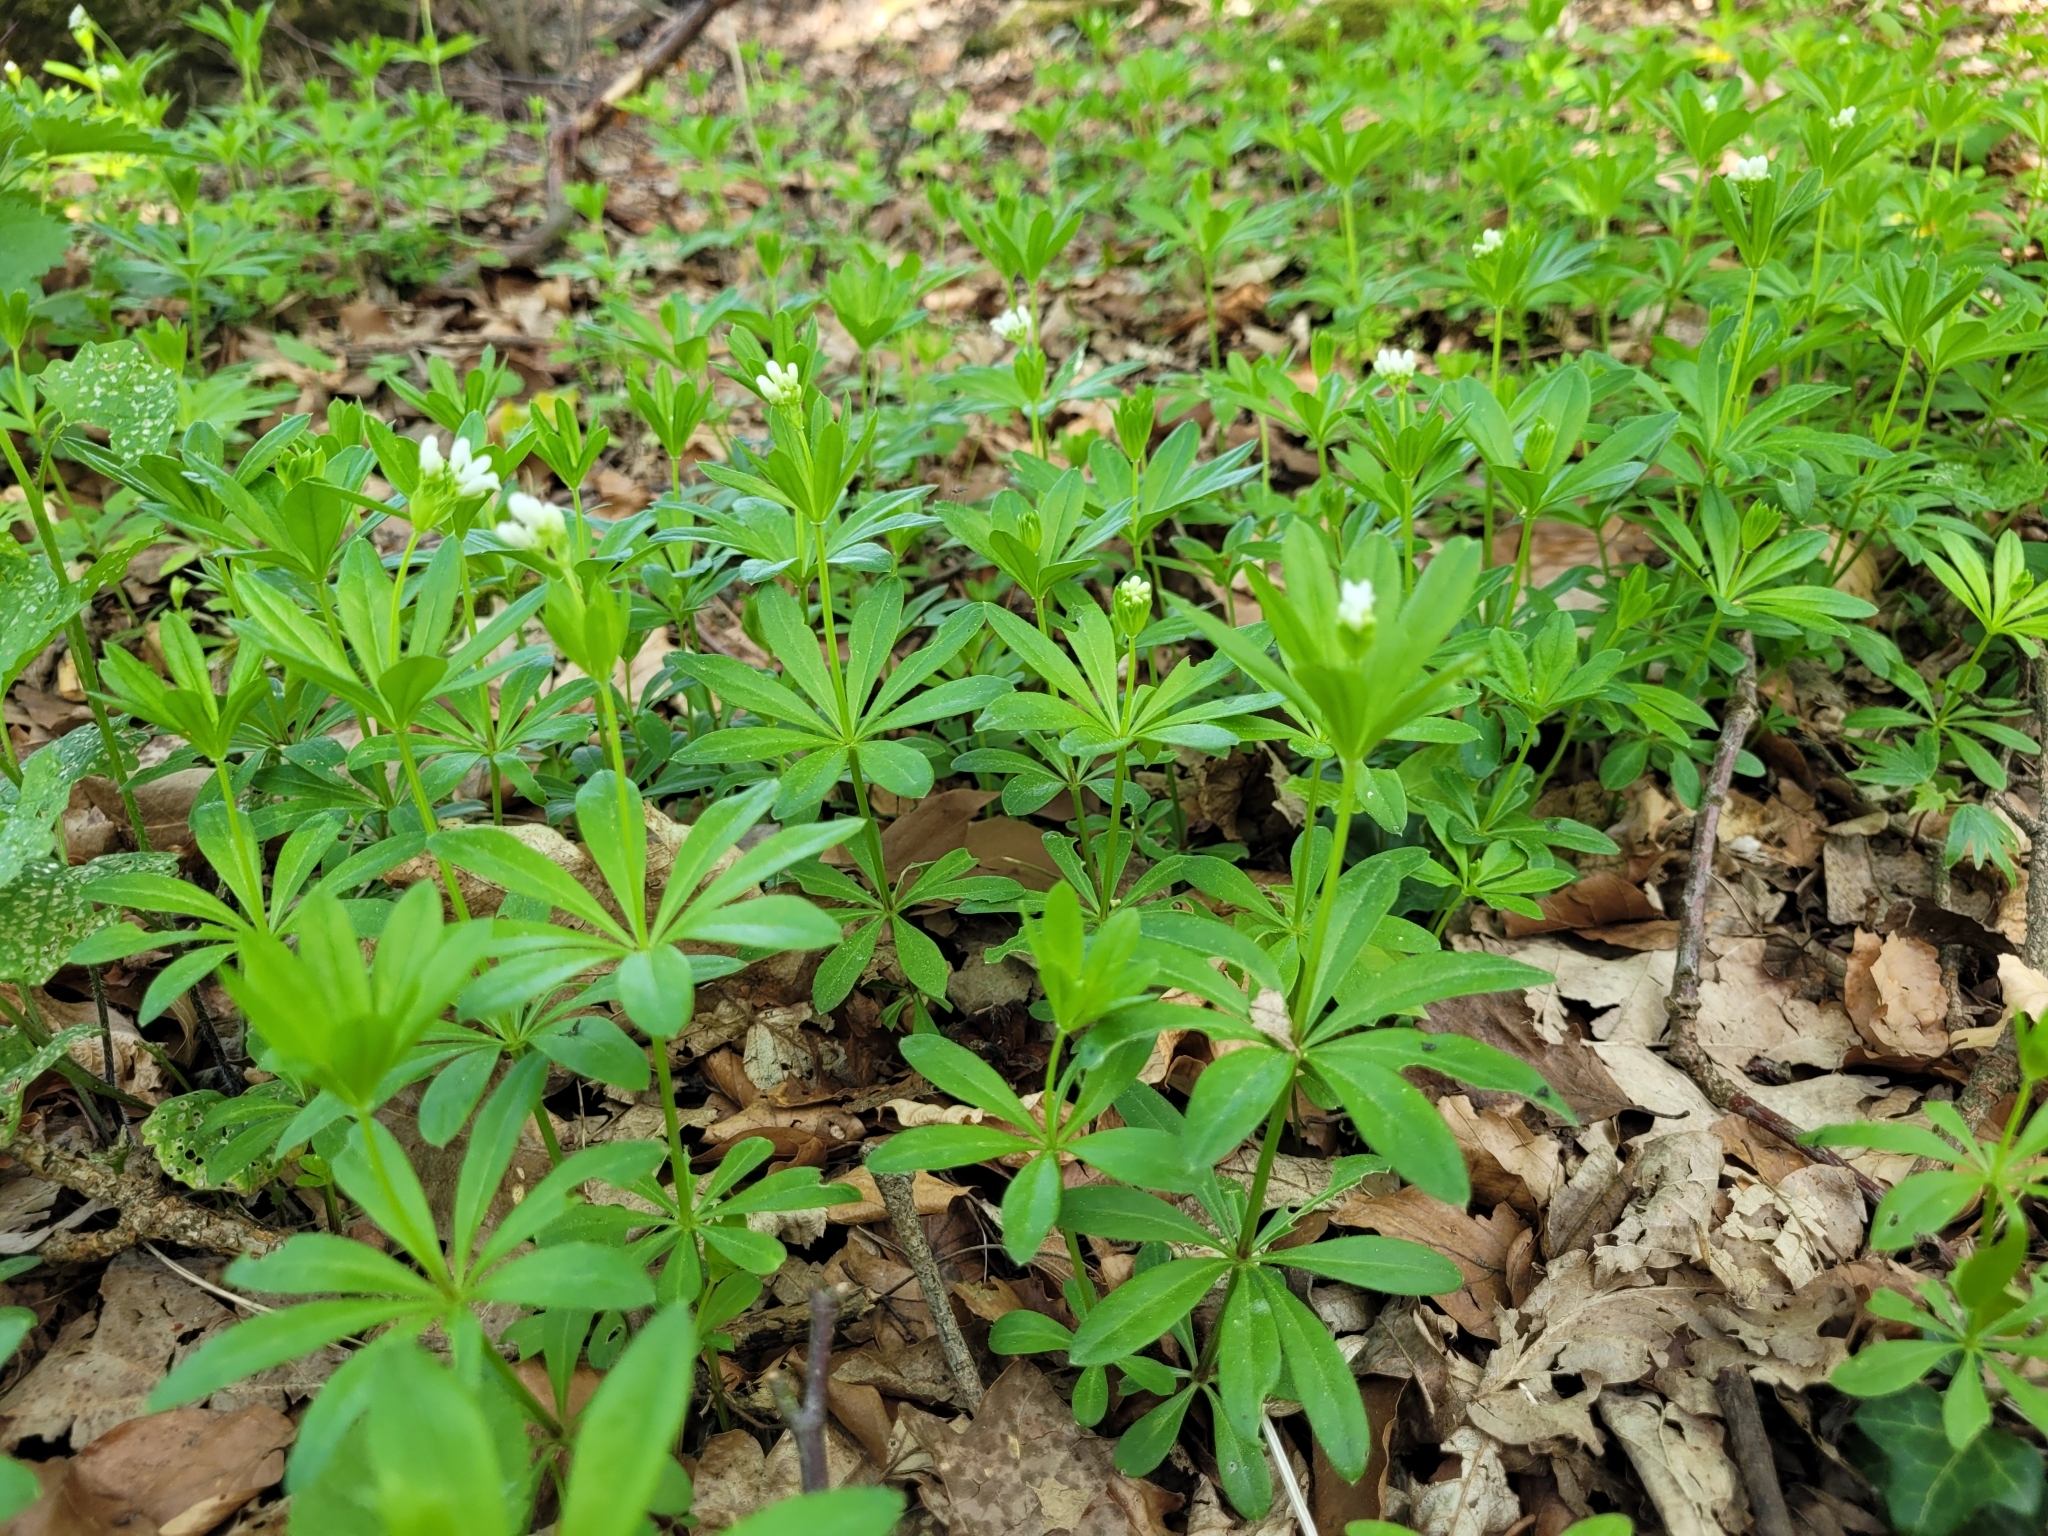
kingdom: Plantae
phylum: Tracheophyta
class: Magnoliopsida
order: Gentianales
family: Rubiaceae
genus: Galium
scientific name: Galium odoratum
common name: Sweet woodruff
